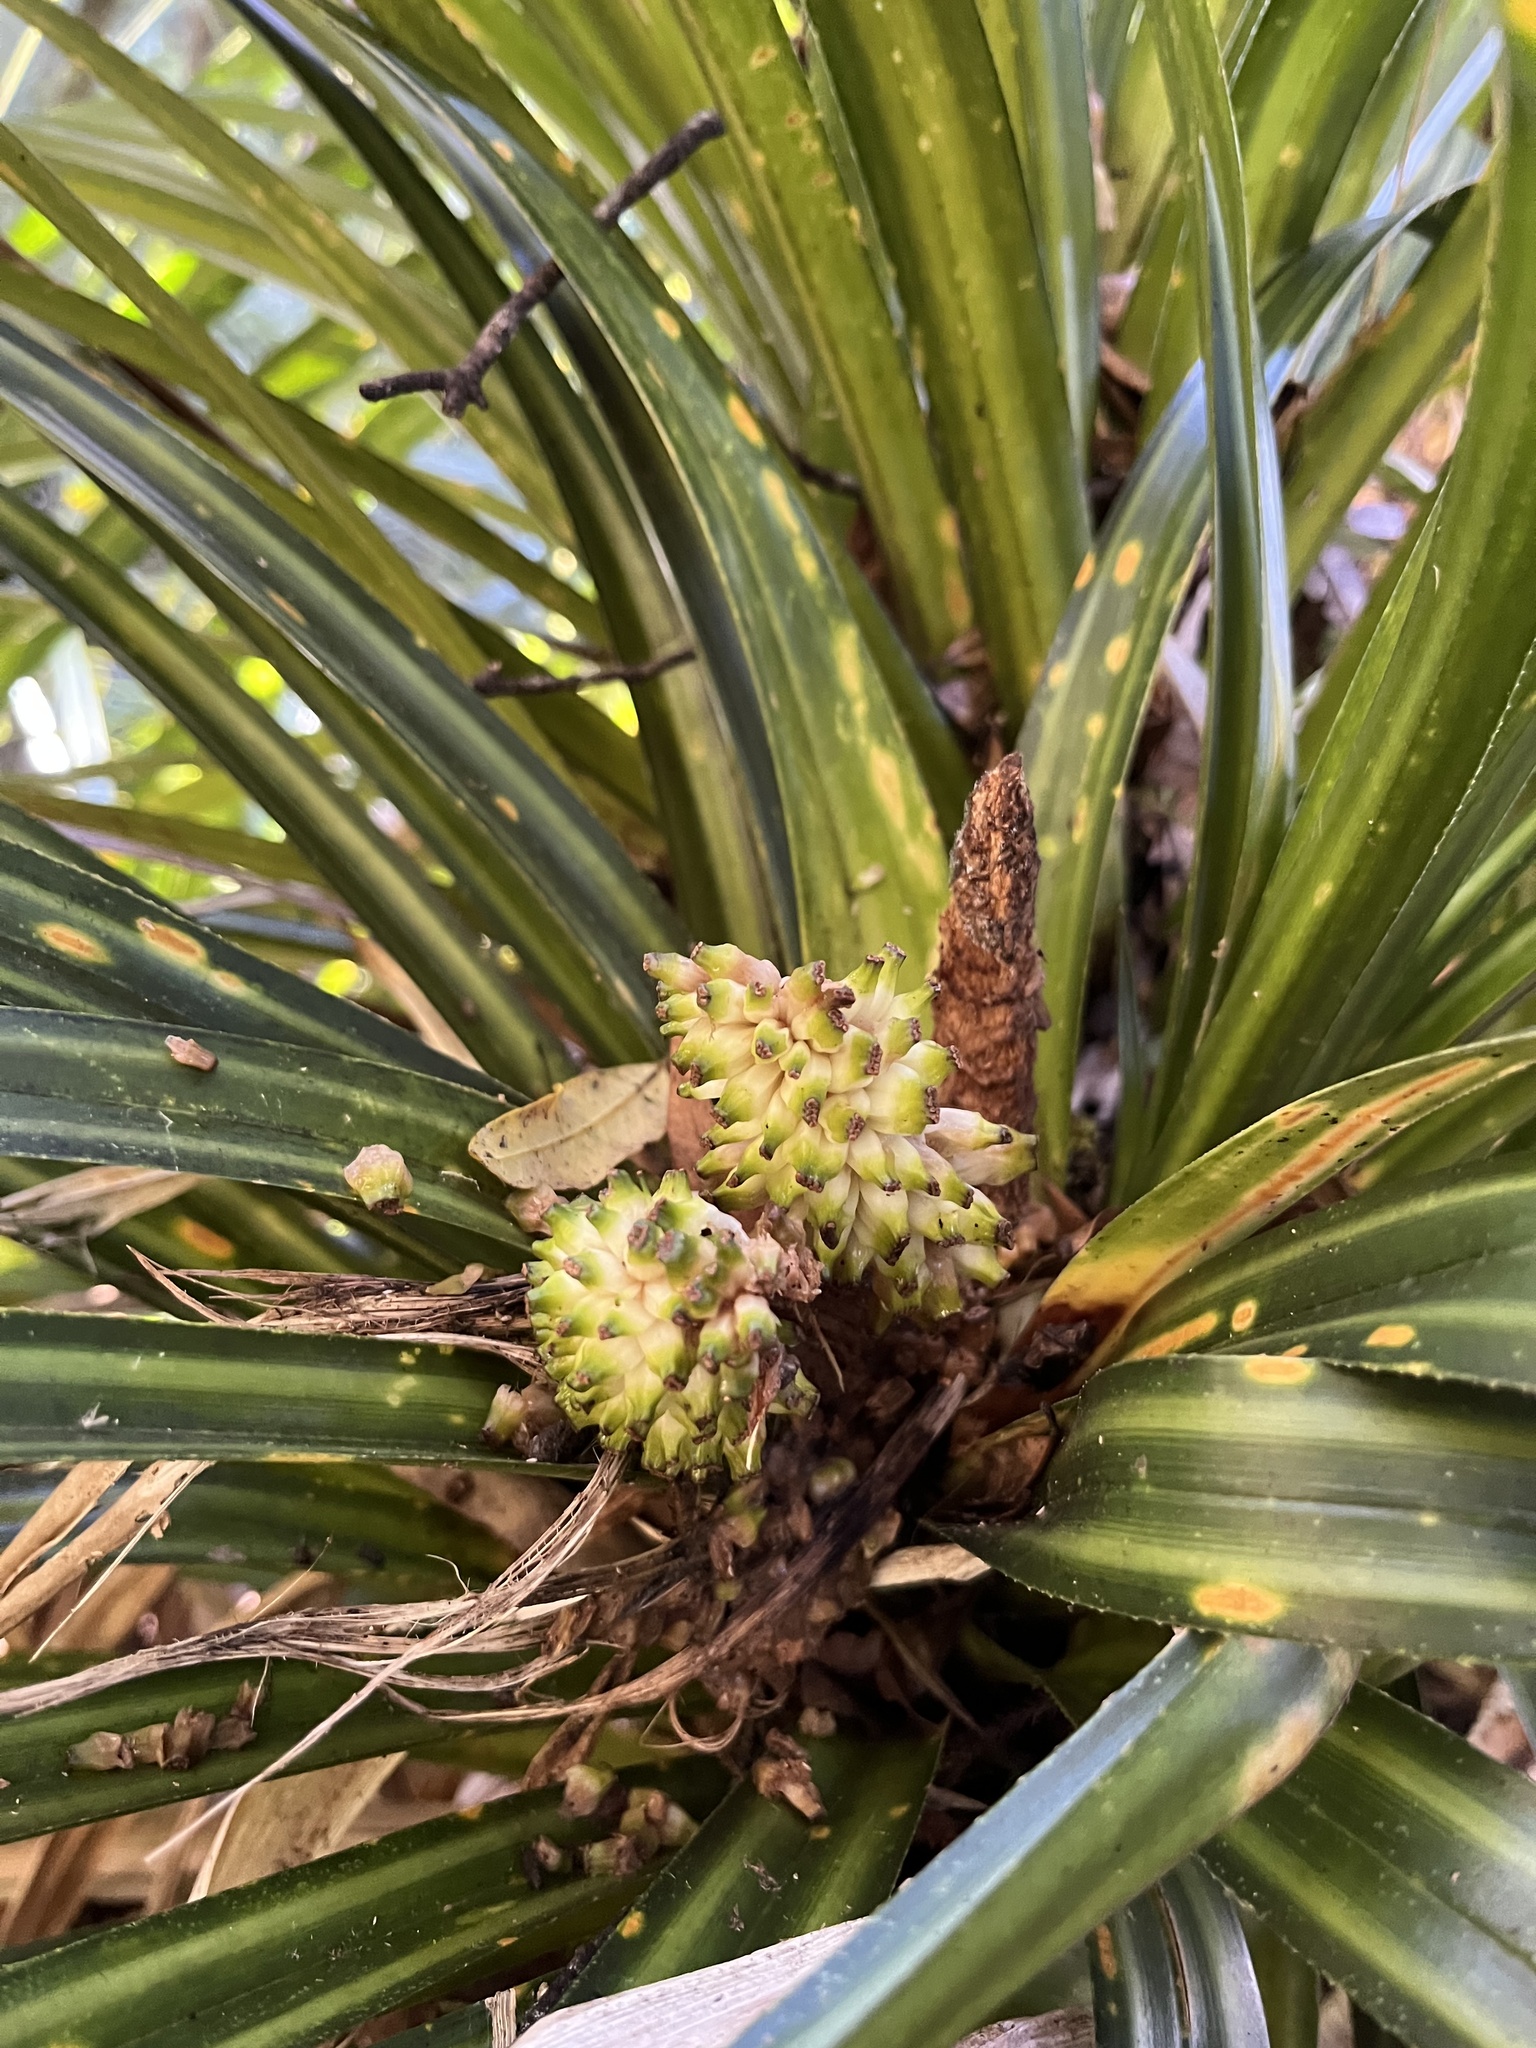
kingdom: Plantae
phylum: Tracheophyta
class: Liliopsida
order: Pandanales
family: Pandanaceae
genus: Freycinetia
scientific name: Freycinetia banksii
